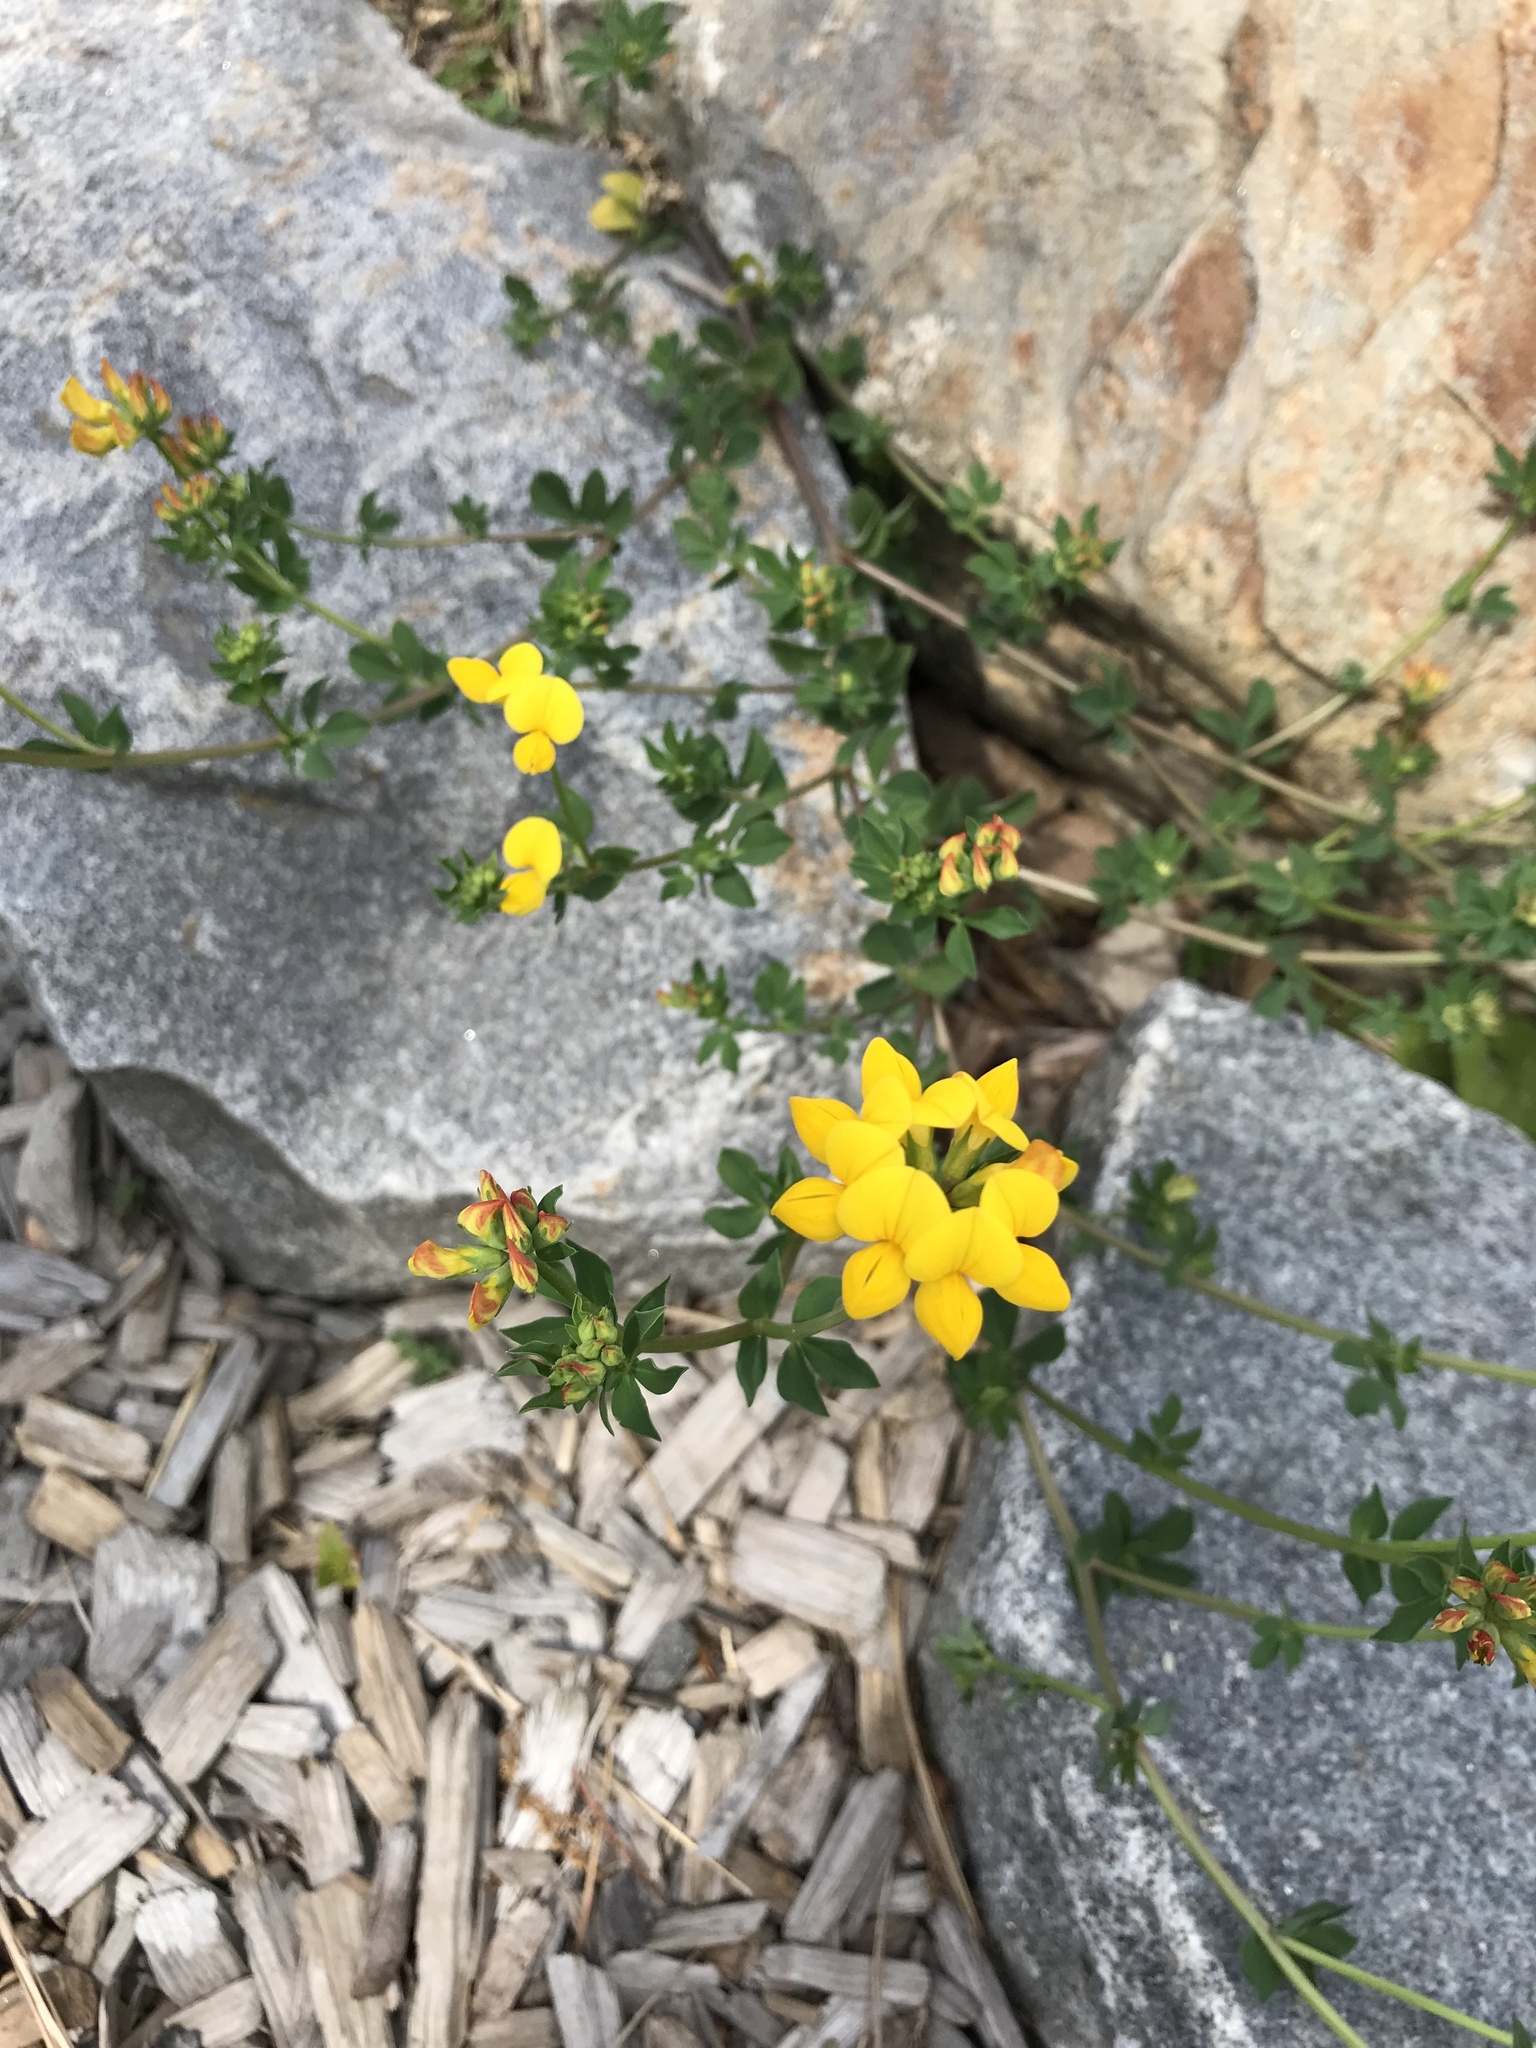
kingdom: Plantae
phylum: Tracheophyta
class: Magnoliopsida
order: Fabales
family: Fabaceae
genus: Lotus
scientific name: Lotus corniculatus
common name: Common bird's-foot-trefoil
